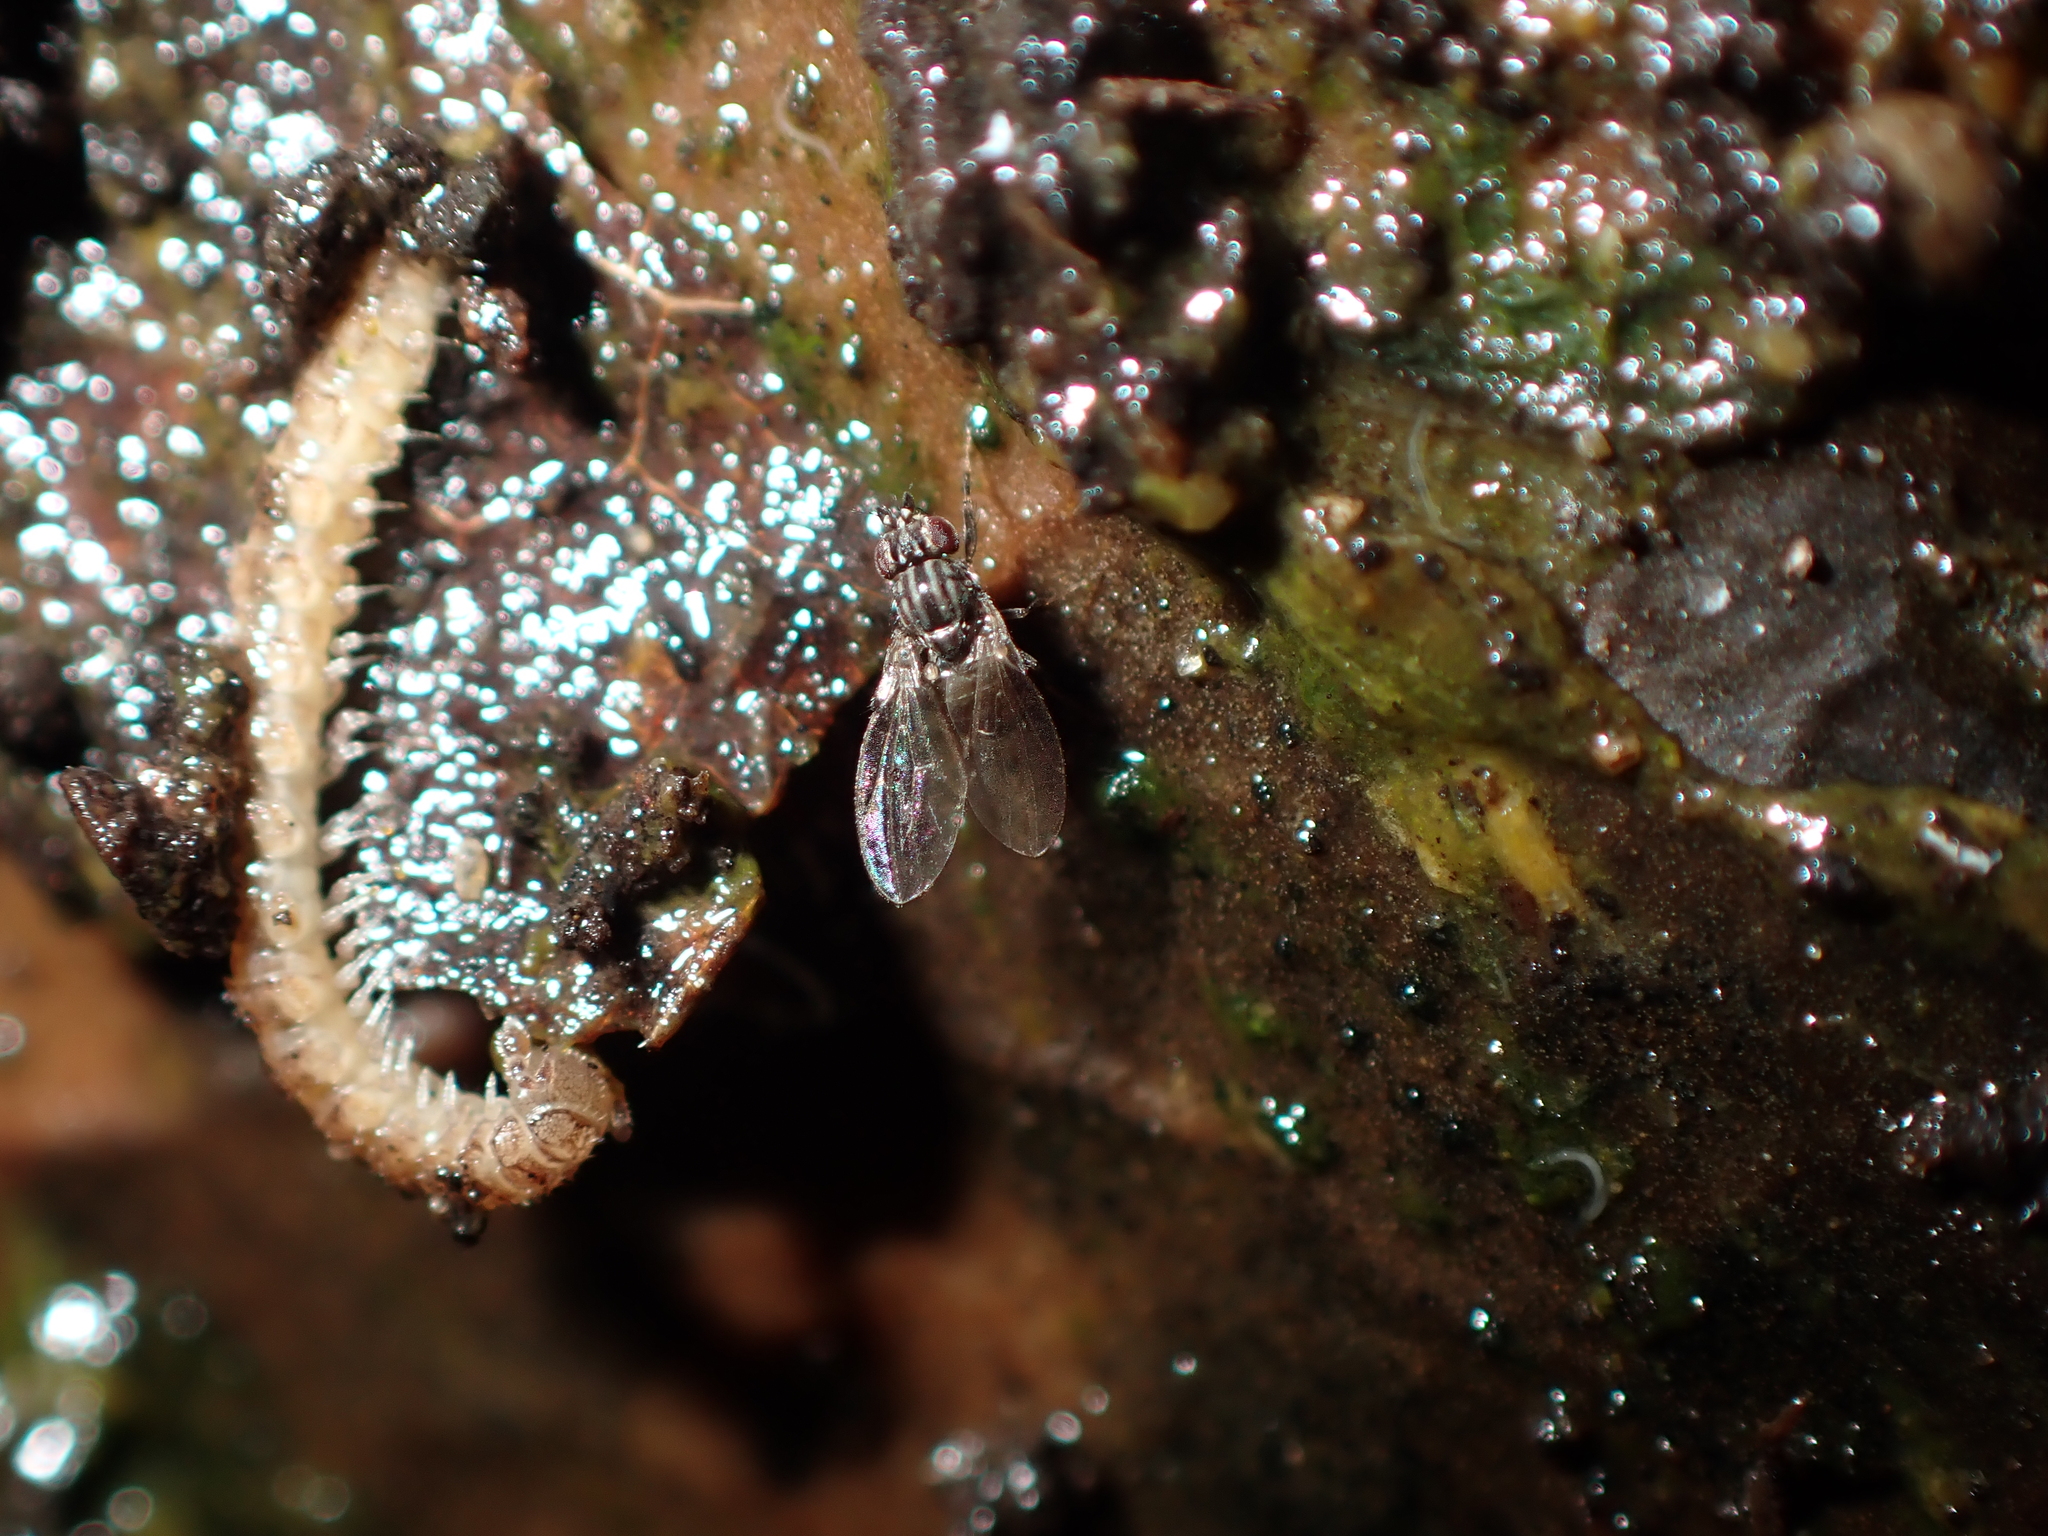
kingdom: Animalia
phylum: Arthropoda
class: Insecta
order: Diptera
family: Drosophilidae
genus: Dettopsomyia
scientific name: Dettopsomyia nigrovittata
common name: Pomace fly
